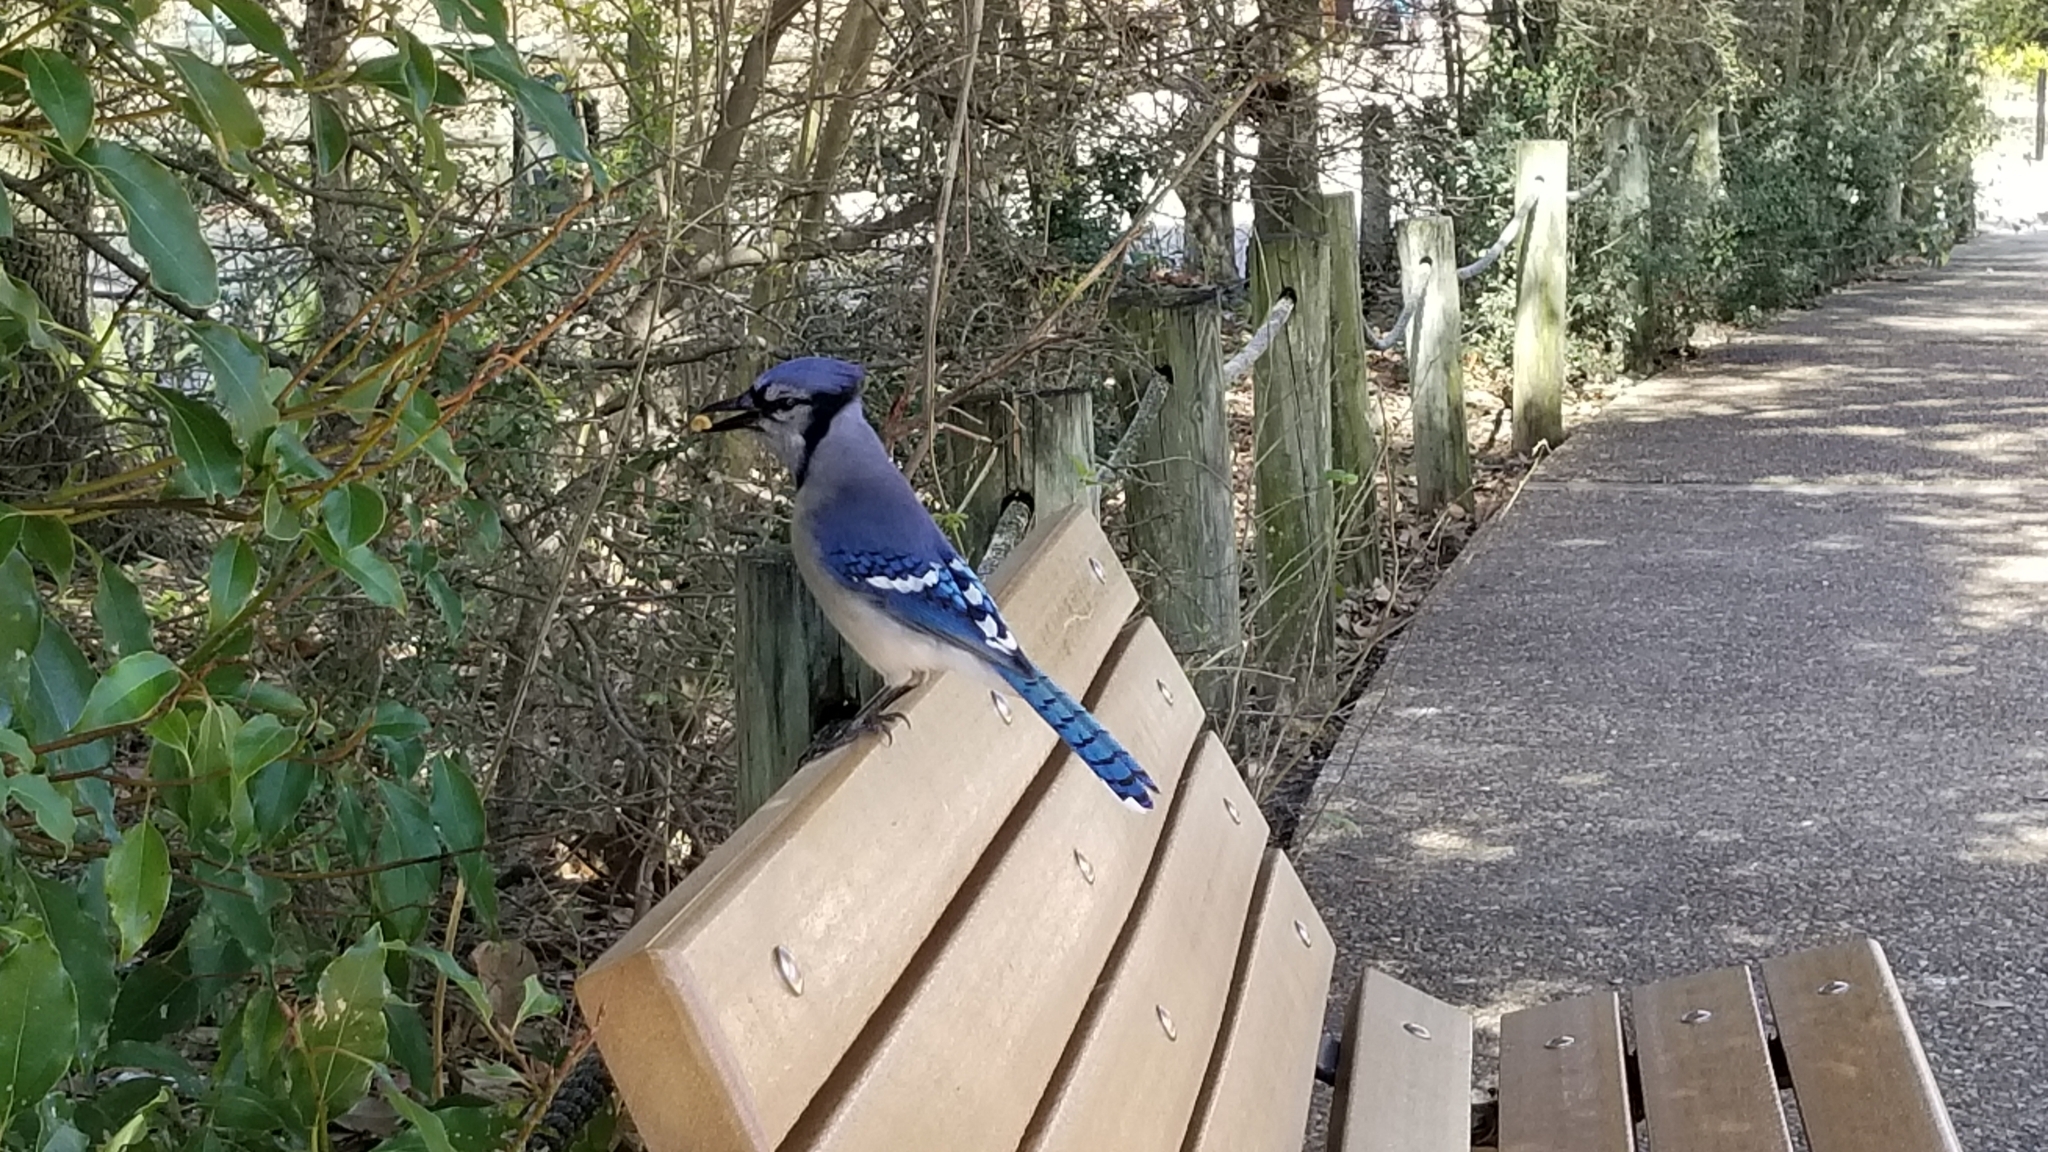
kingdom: Animalia
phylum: Chordata
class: Aves
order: Passeriformes
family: Corvidae
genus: Cyanocitta
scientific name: Cyanocitta cristata
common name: Blue jay
